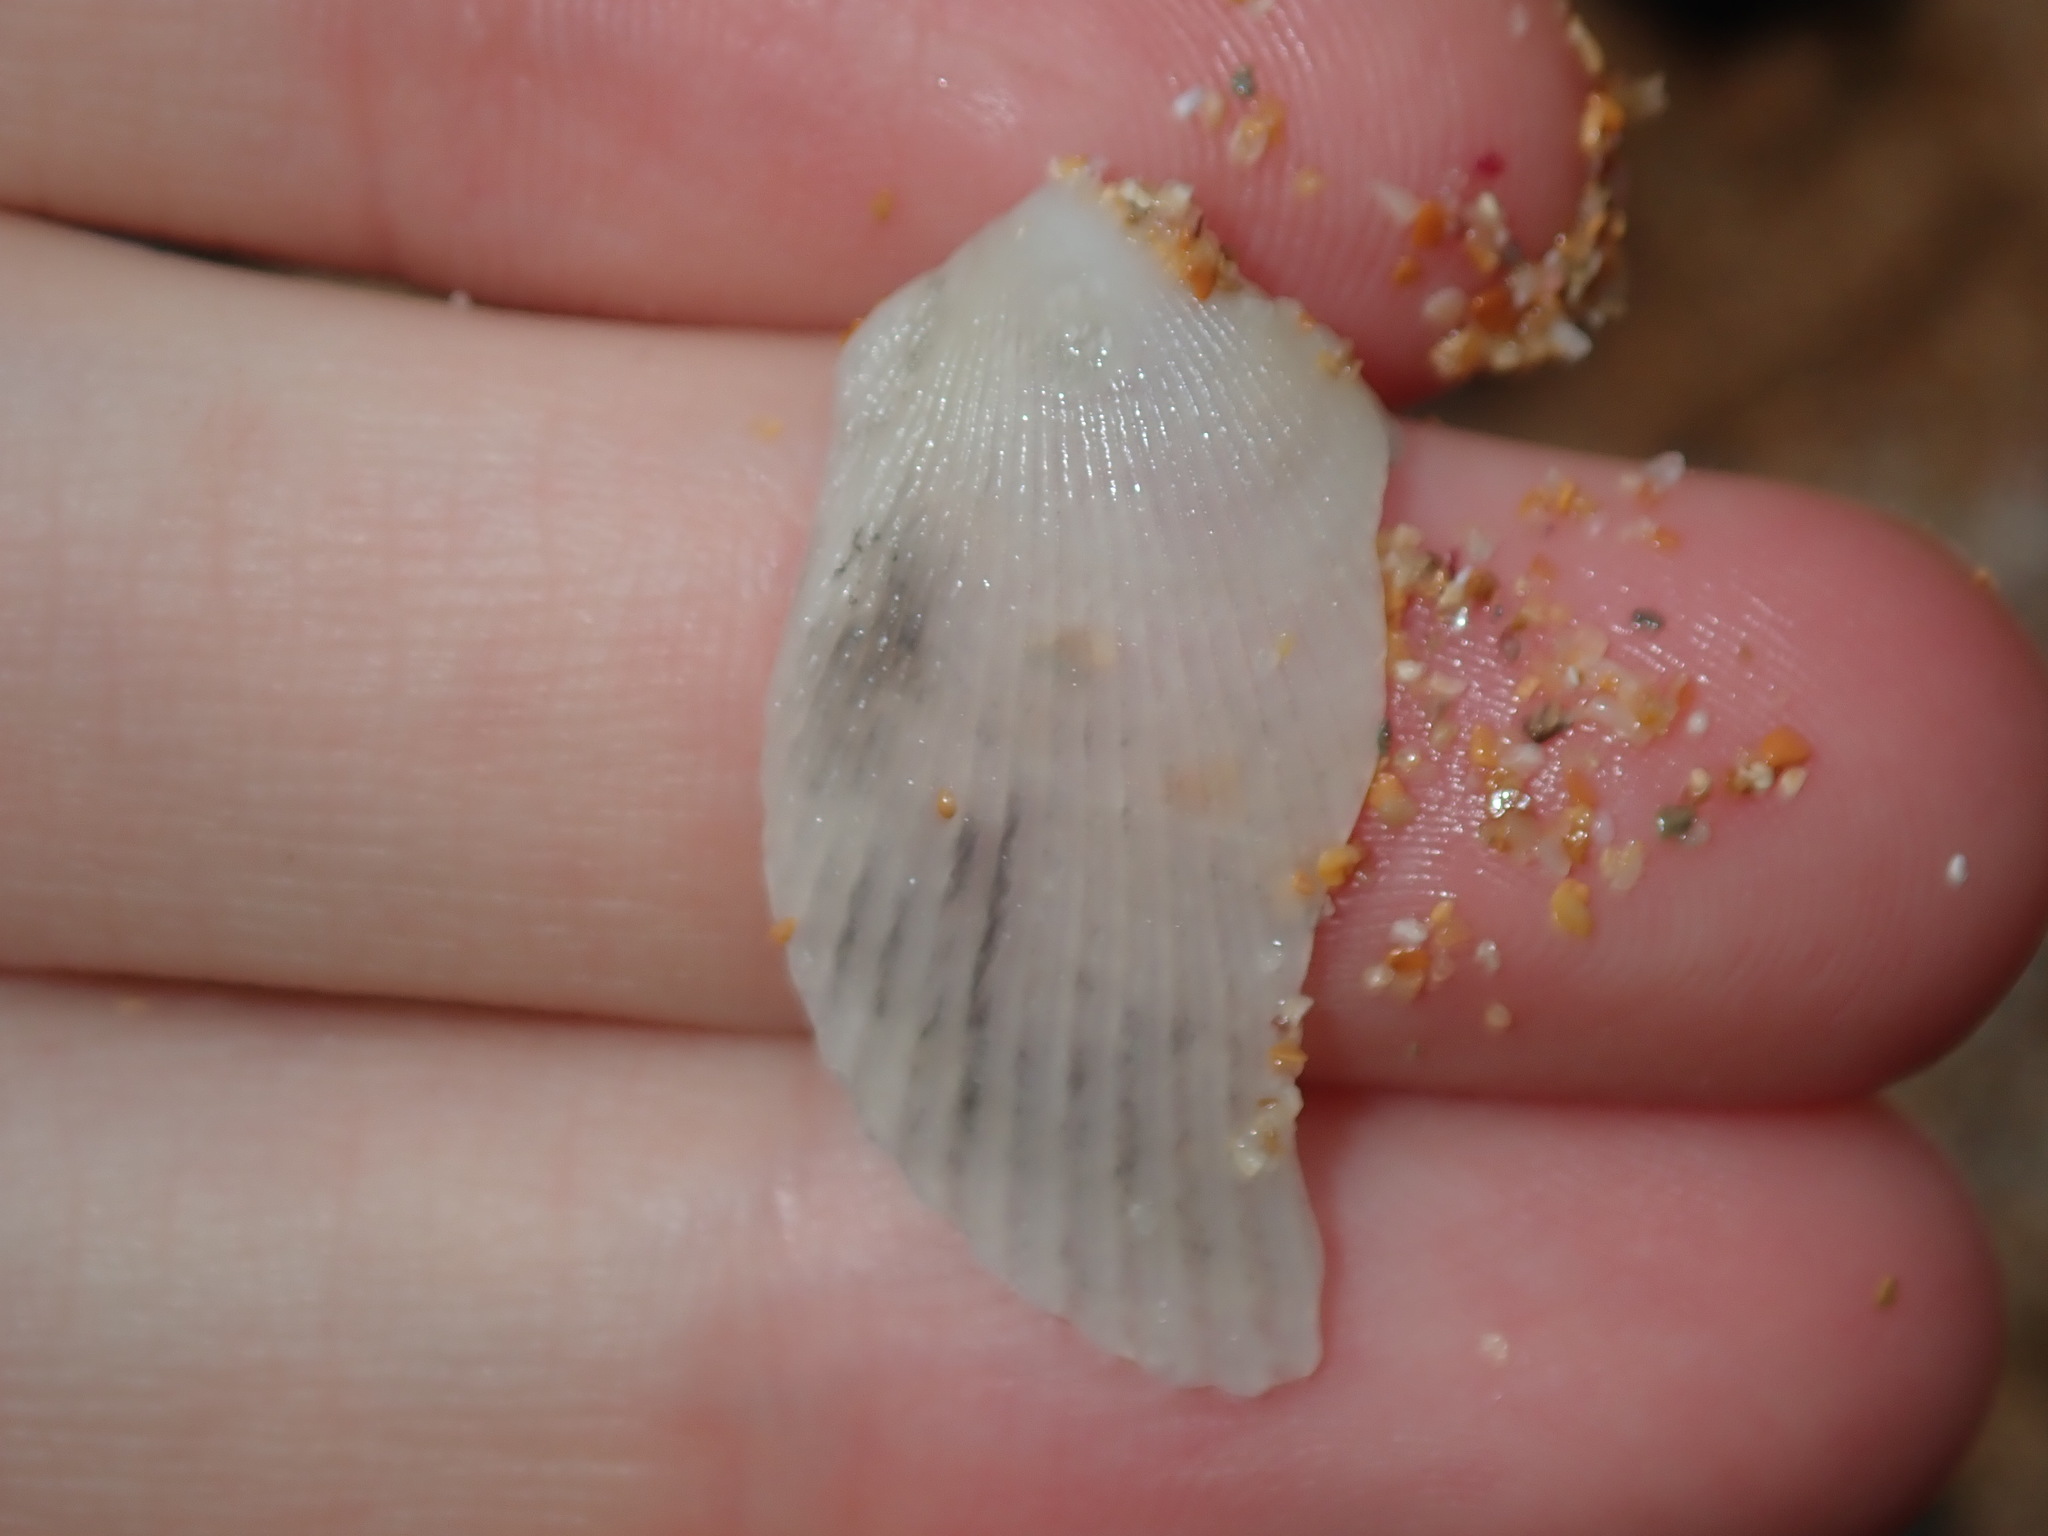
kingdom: Animalia
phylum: Mollusca
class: Bivalvia
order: Limida
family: Limidae
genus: Lima
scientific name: Lima nimbifer
